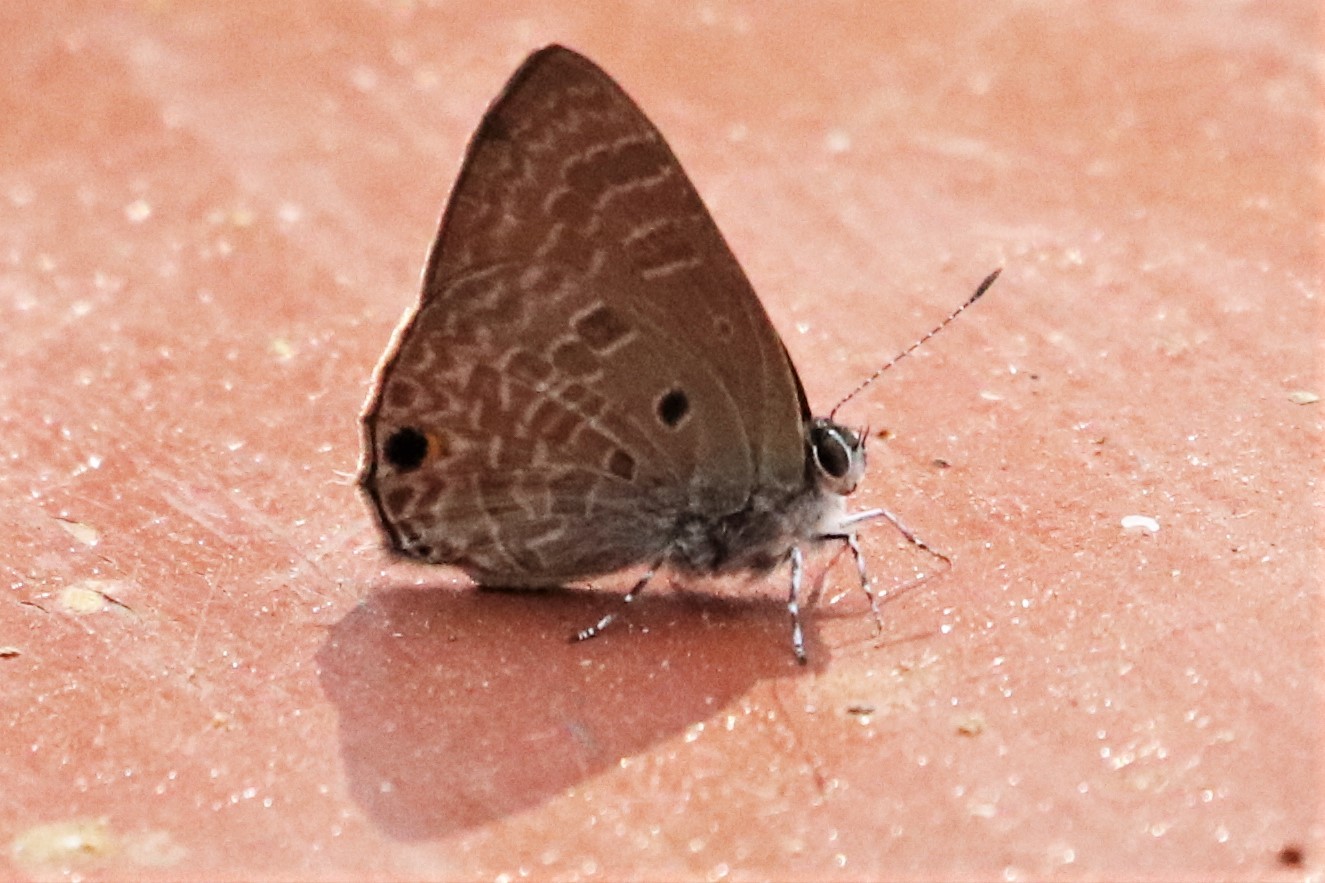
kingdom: Animalia
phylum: Arthropoda
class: Insecta
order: Lepidoptera
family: Lycaenidae
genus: Anthene
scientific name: Anthene lycaenina
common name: Pointed ciliate blue
